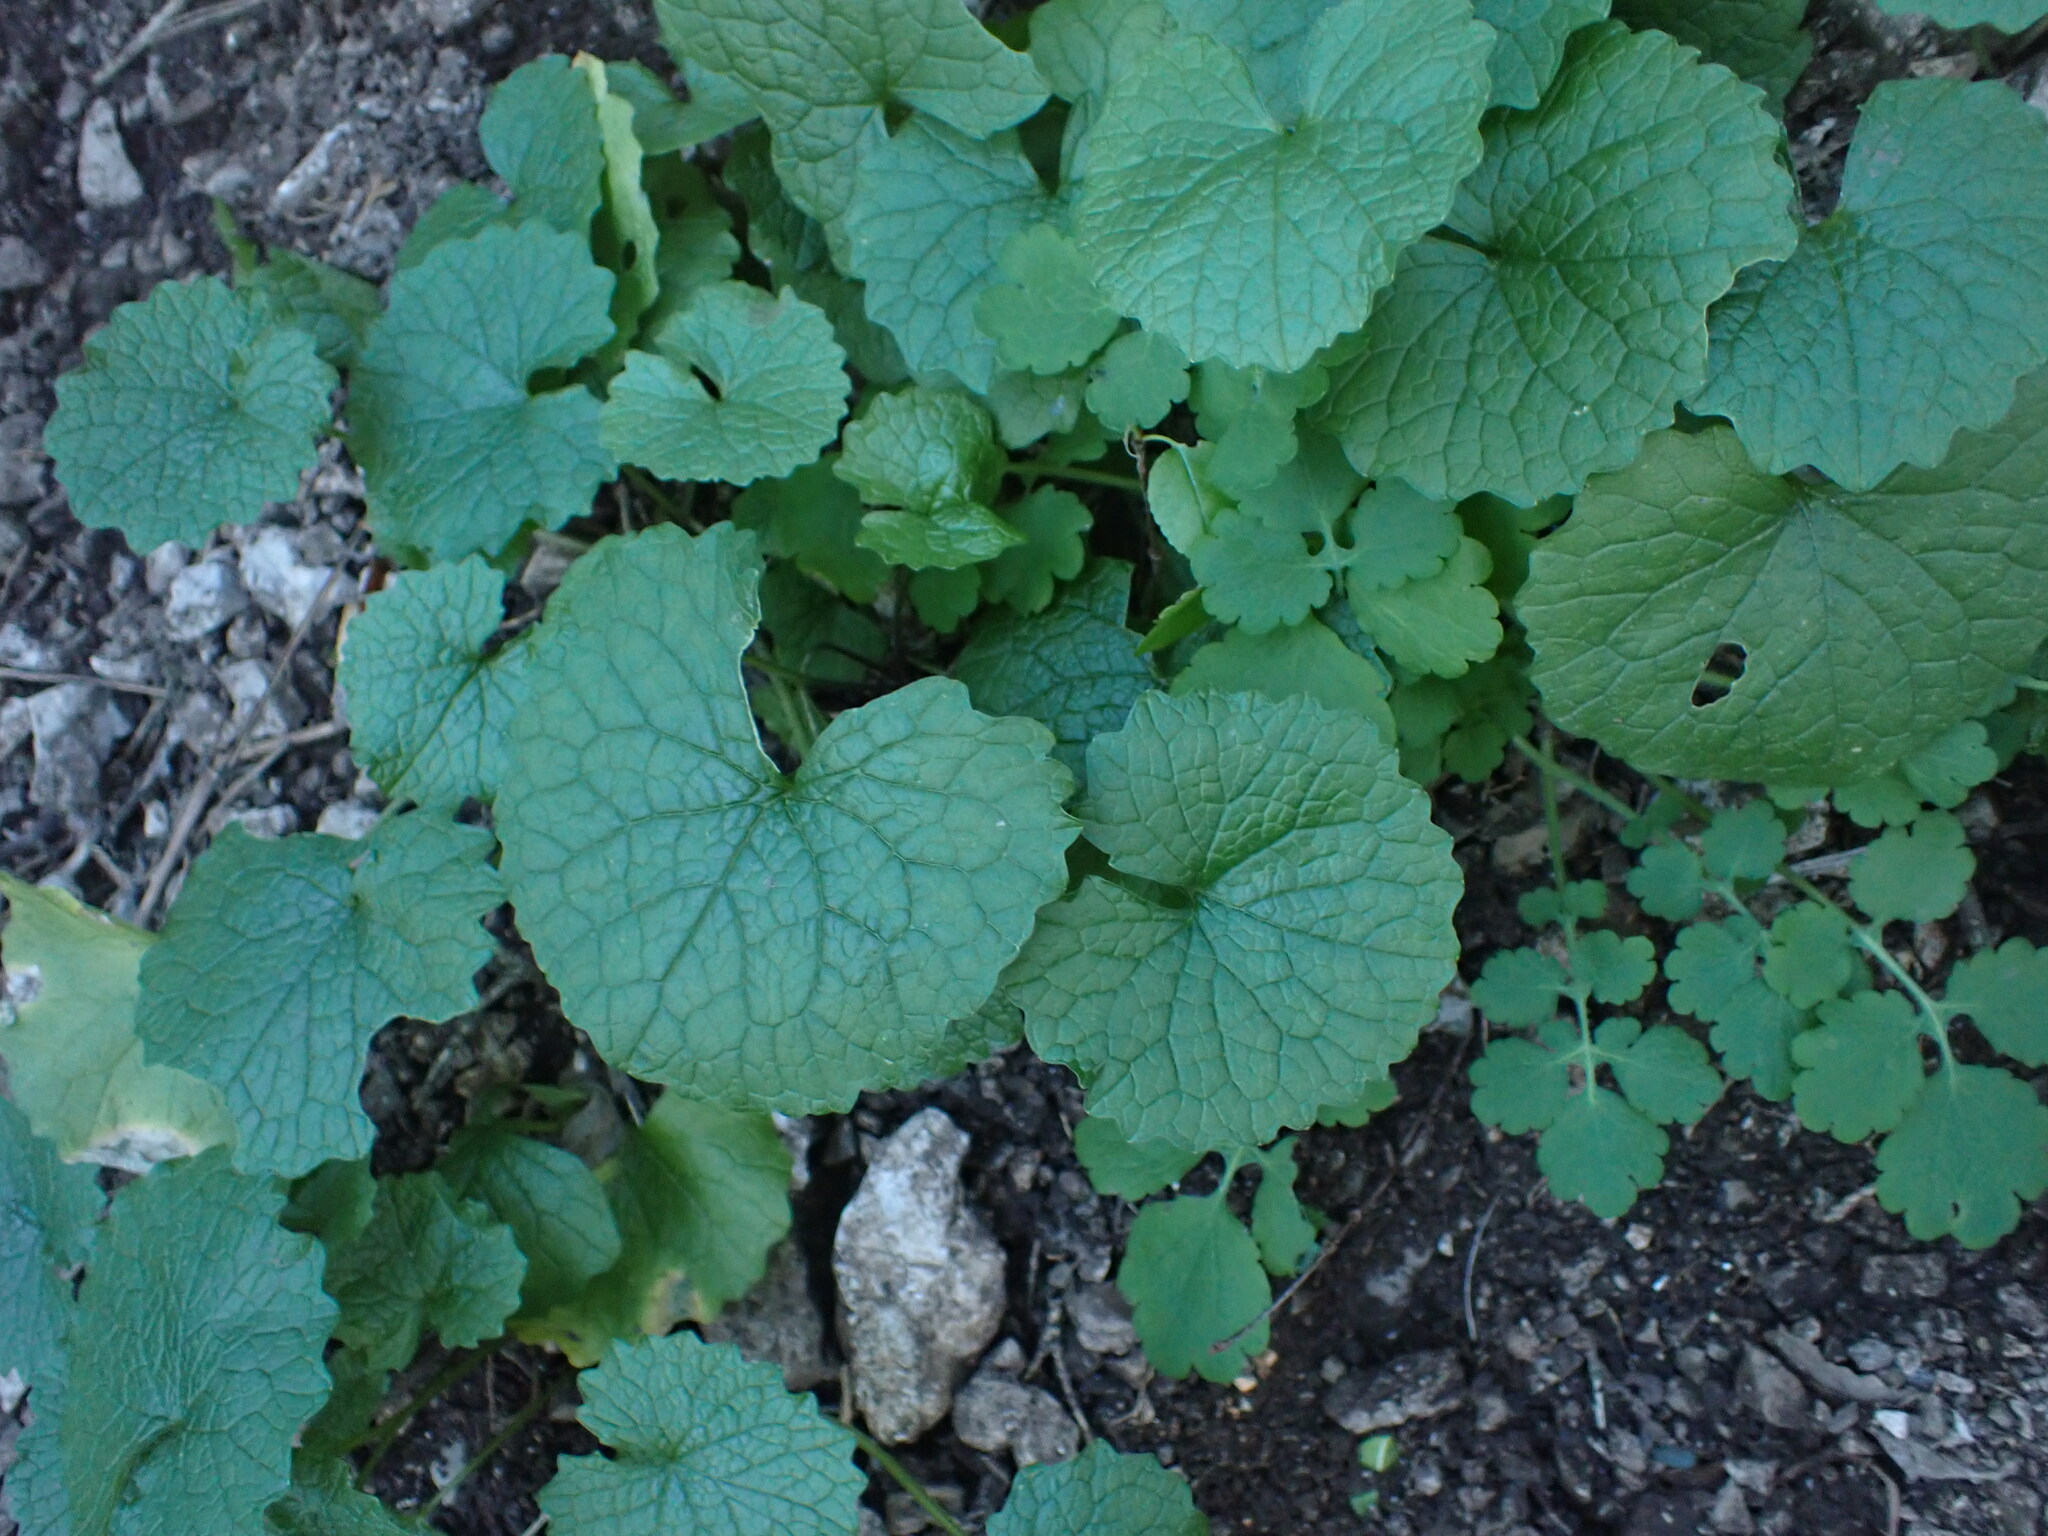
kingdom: Plantae
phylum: Tracheophyta
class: Magnoliopsida
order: Brassicales
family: Brassicaceae
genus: Alliaria
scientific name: Alliaria petiolata
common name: Garlic mustard
